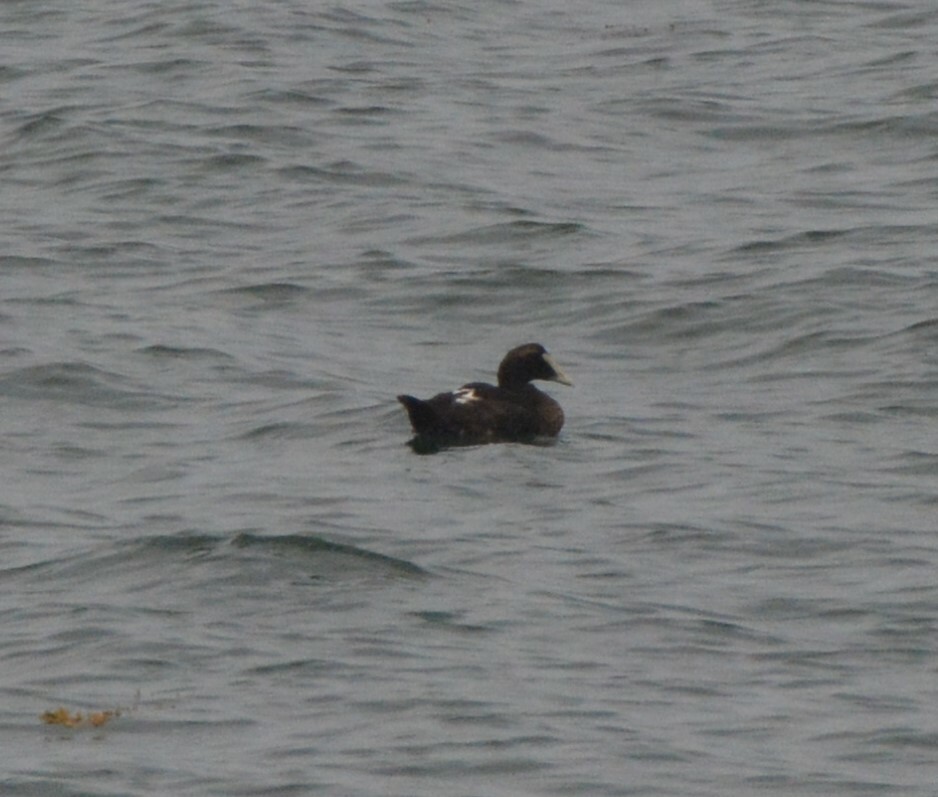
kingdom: Animalia
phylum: Chordata
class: Aves
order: Anseriformes
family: Anatidae
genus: Somateria
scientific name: Somateria mollissima
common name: Common eider
